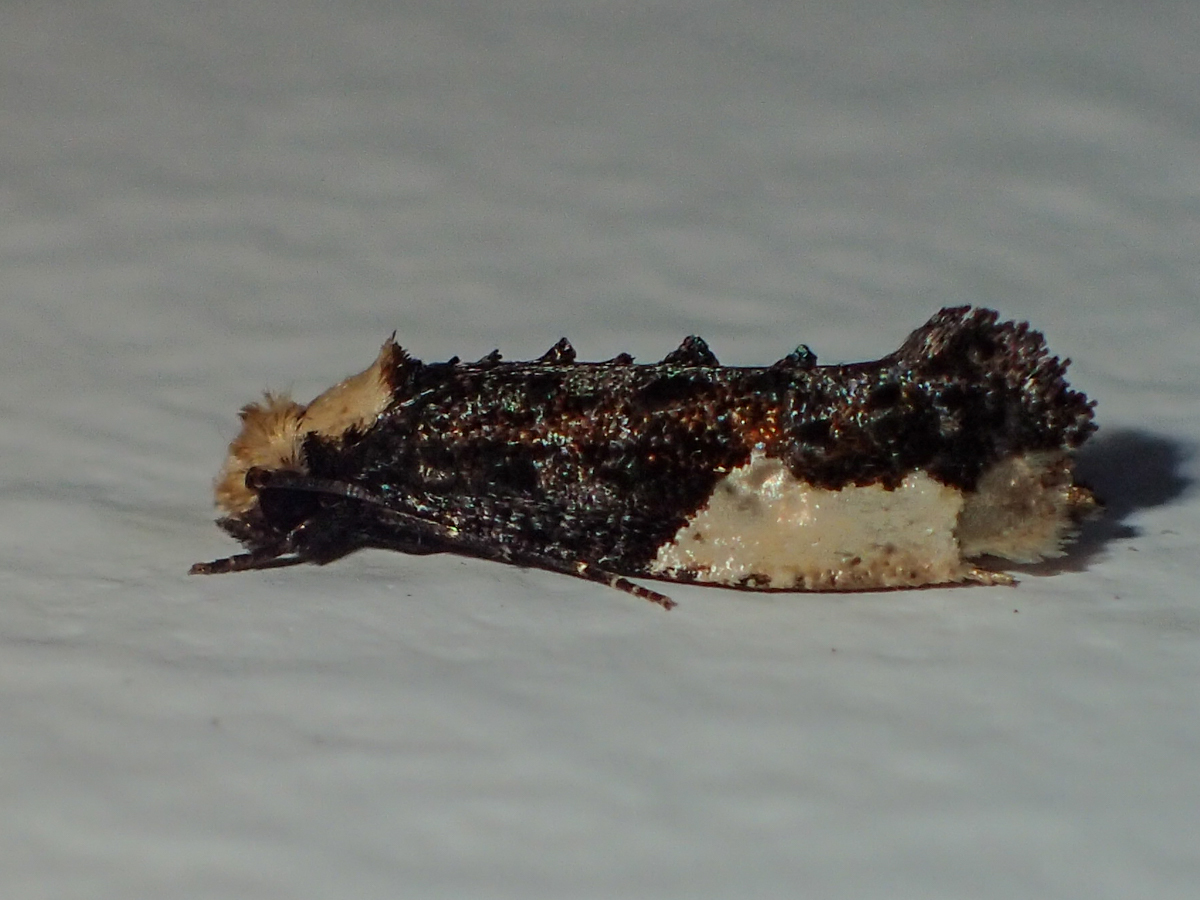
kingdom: Animalia
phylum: Arthropoda
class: Insecta
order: Lepidoptera
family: Tineidae
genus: Monopis
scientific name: Monopis monachella
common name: Moth
